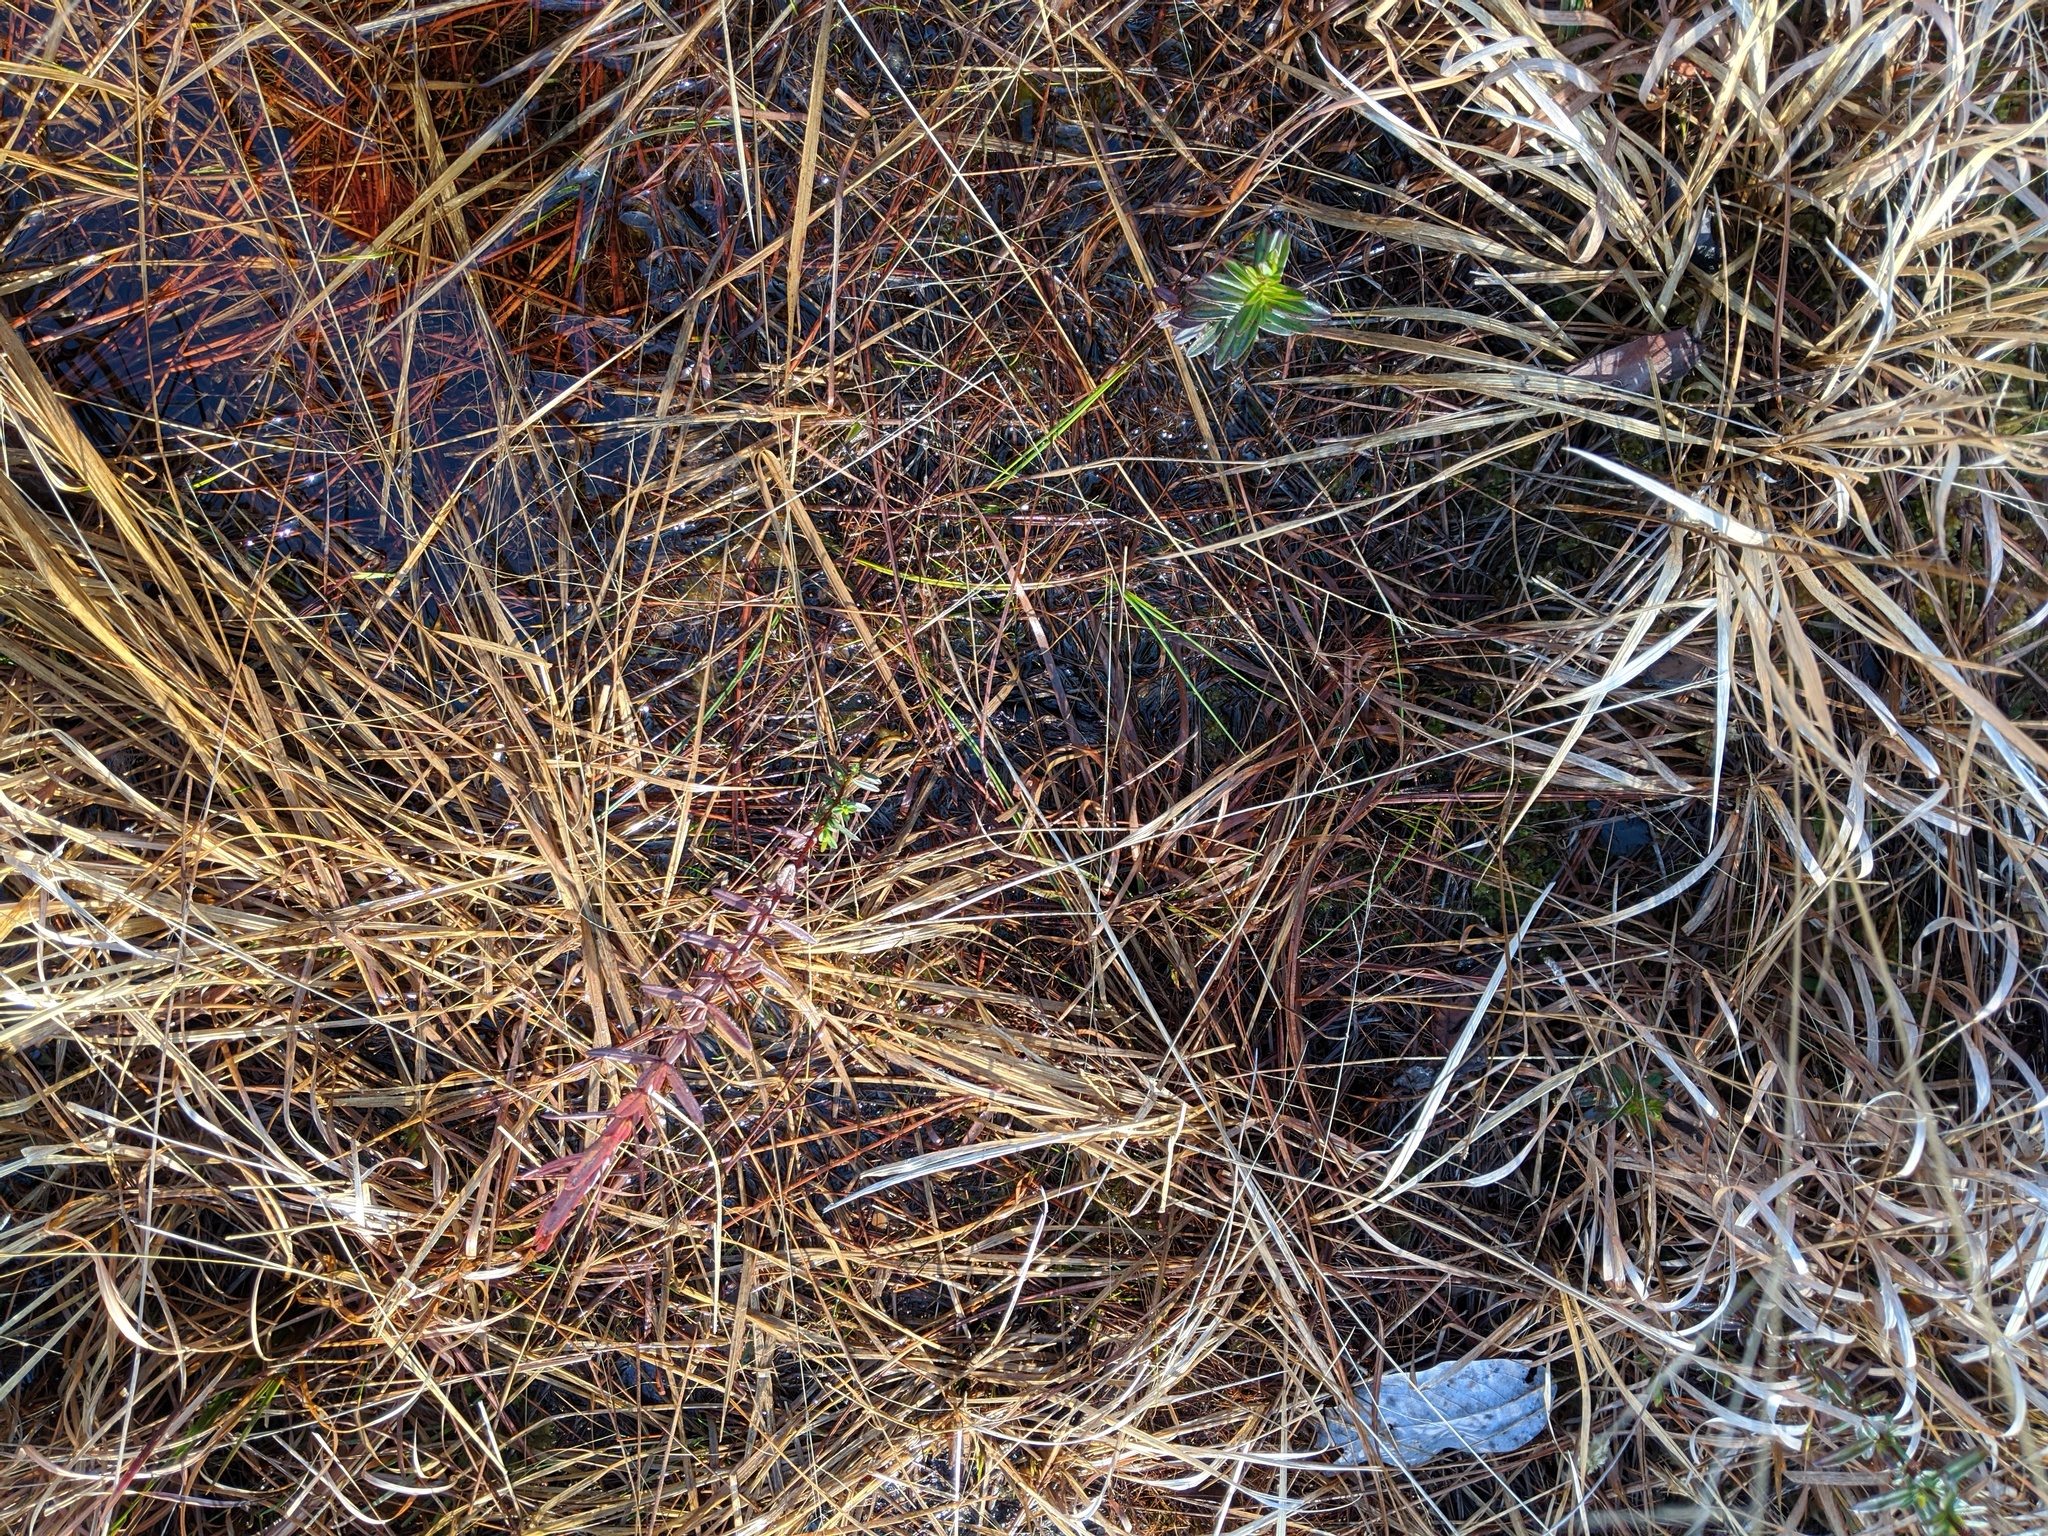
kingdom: Plantae
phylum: Tracheophyta
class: Magnoliopsida
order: Malpighiales
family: Hypericaceae
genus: Hypericum
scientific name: Hypericum cistifolium
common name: Round-pod st. john's-wort
